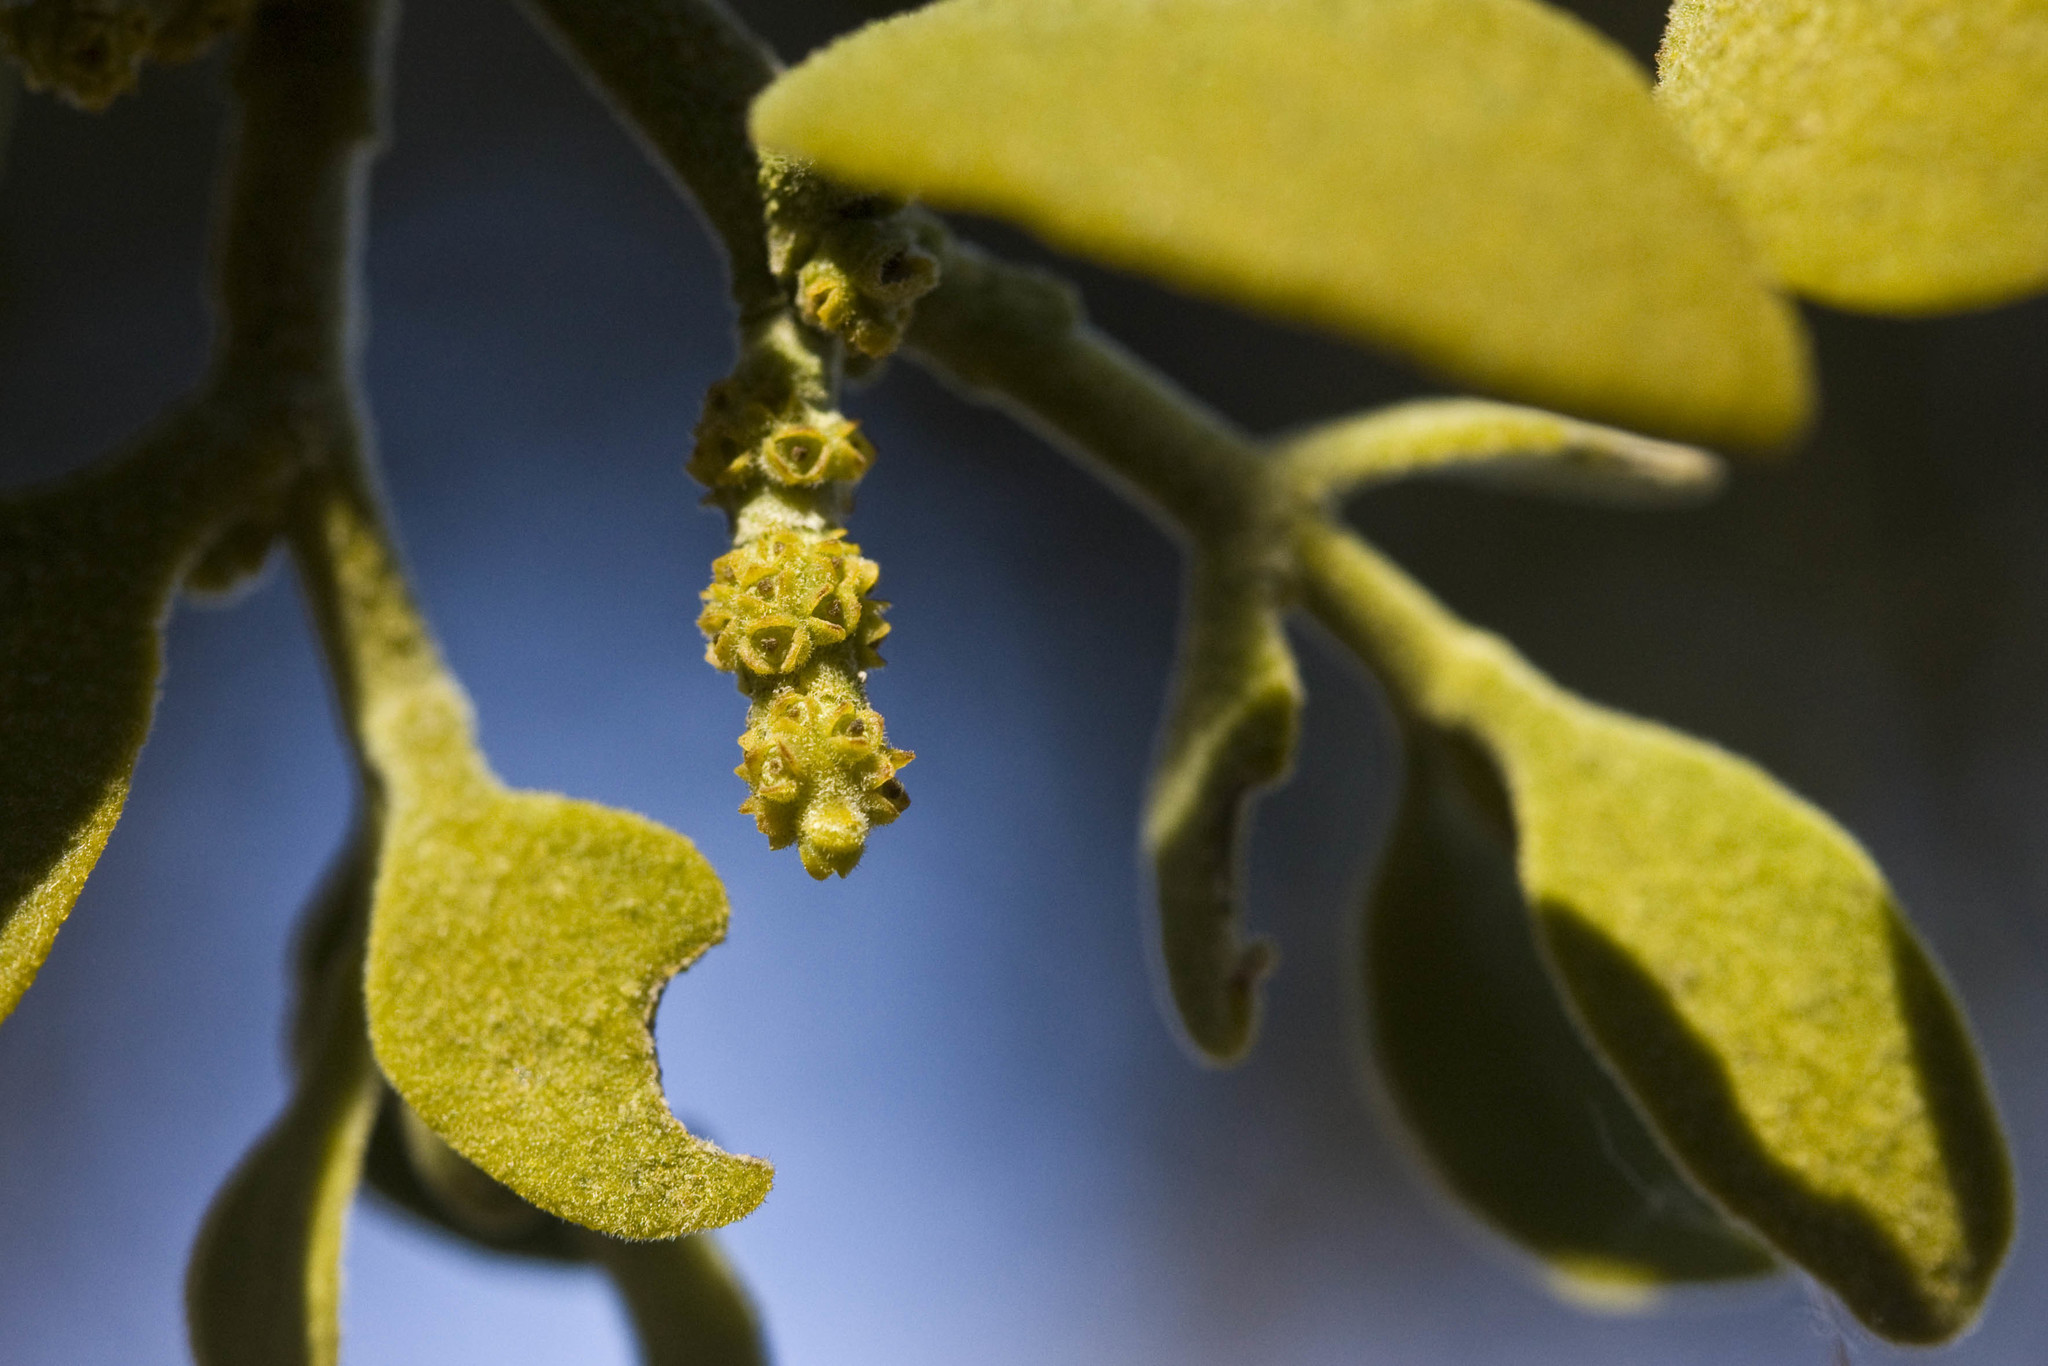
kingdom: Plantae
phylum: Tracheophyta
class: Magnoliopsida
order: Santalales
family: Viscaceae
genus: Phoradendron
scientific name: Phoradendron leucarpum
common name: Pacific mistletoe
